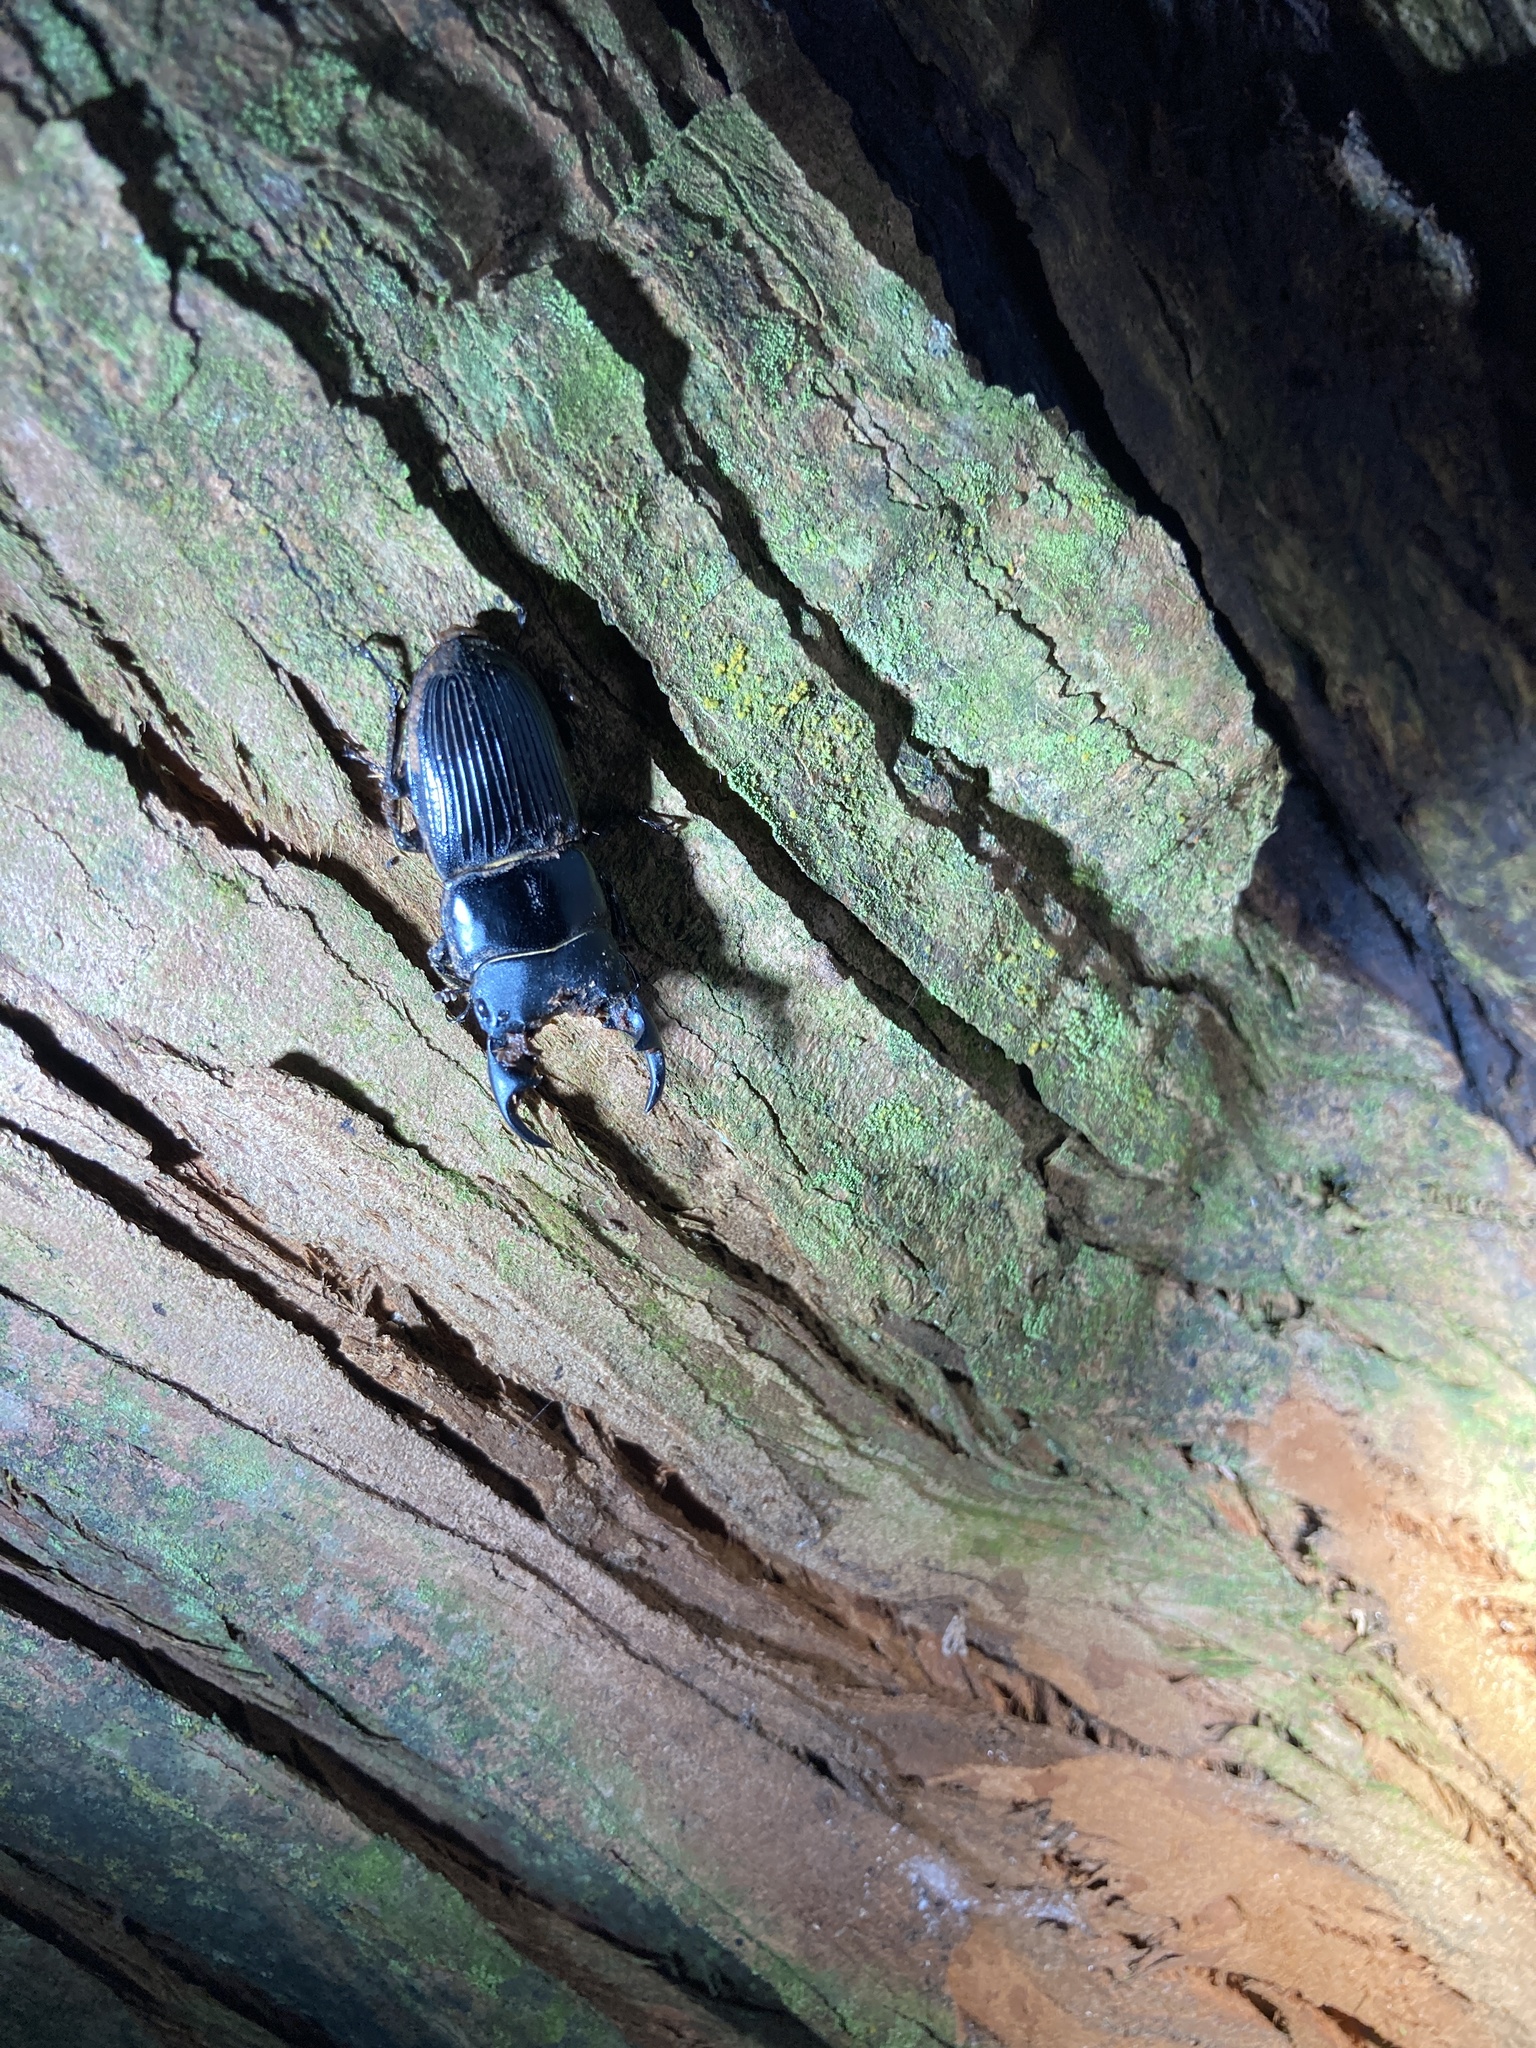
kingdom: Animalia
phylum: Arthropoda
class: Insecta
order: Coleoptera
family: Lucanidae
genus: Aegus
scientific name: Aegus laevicollis
